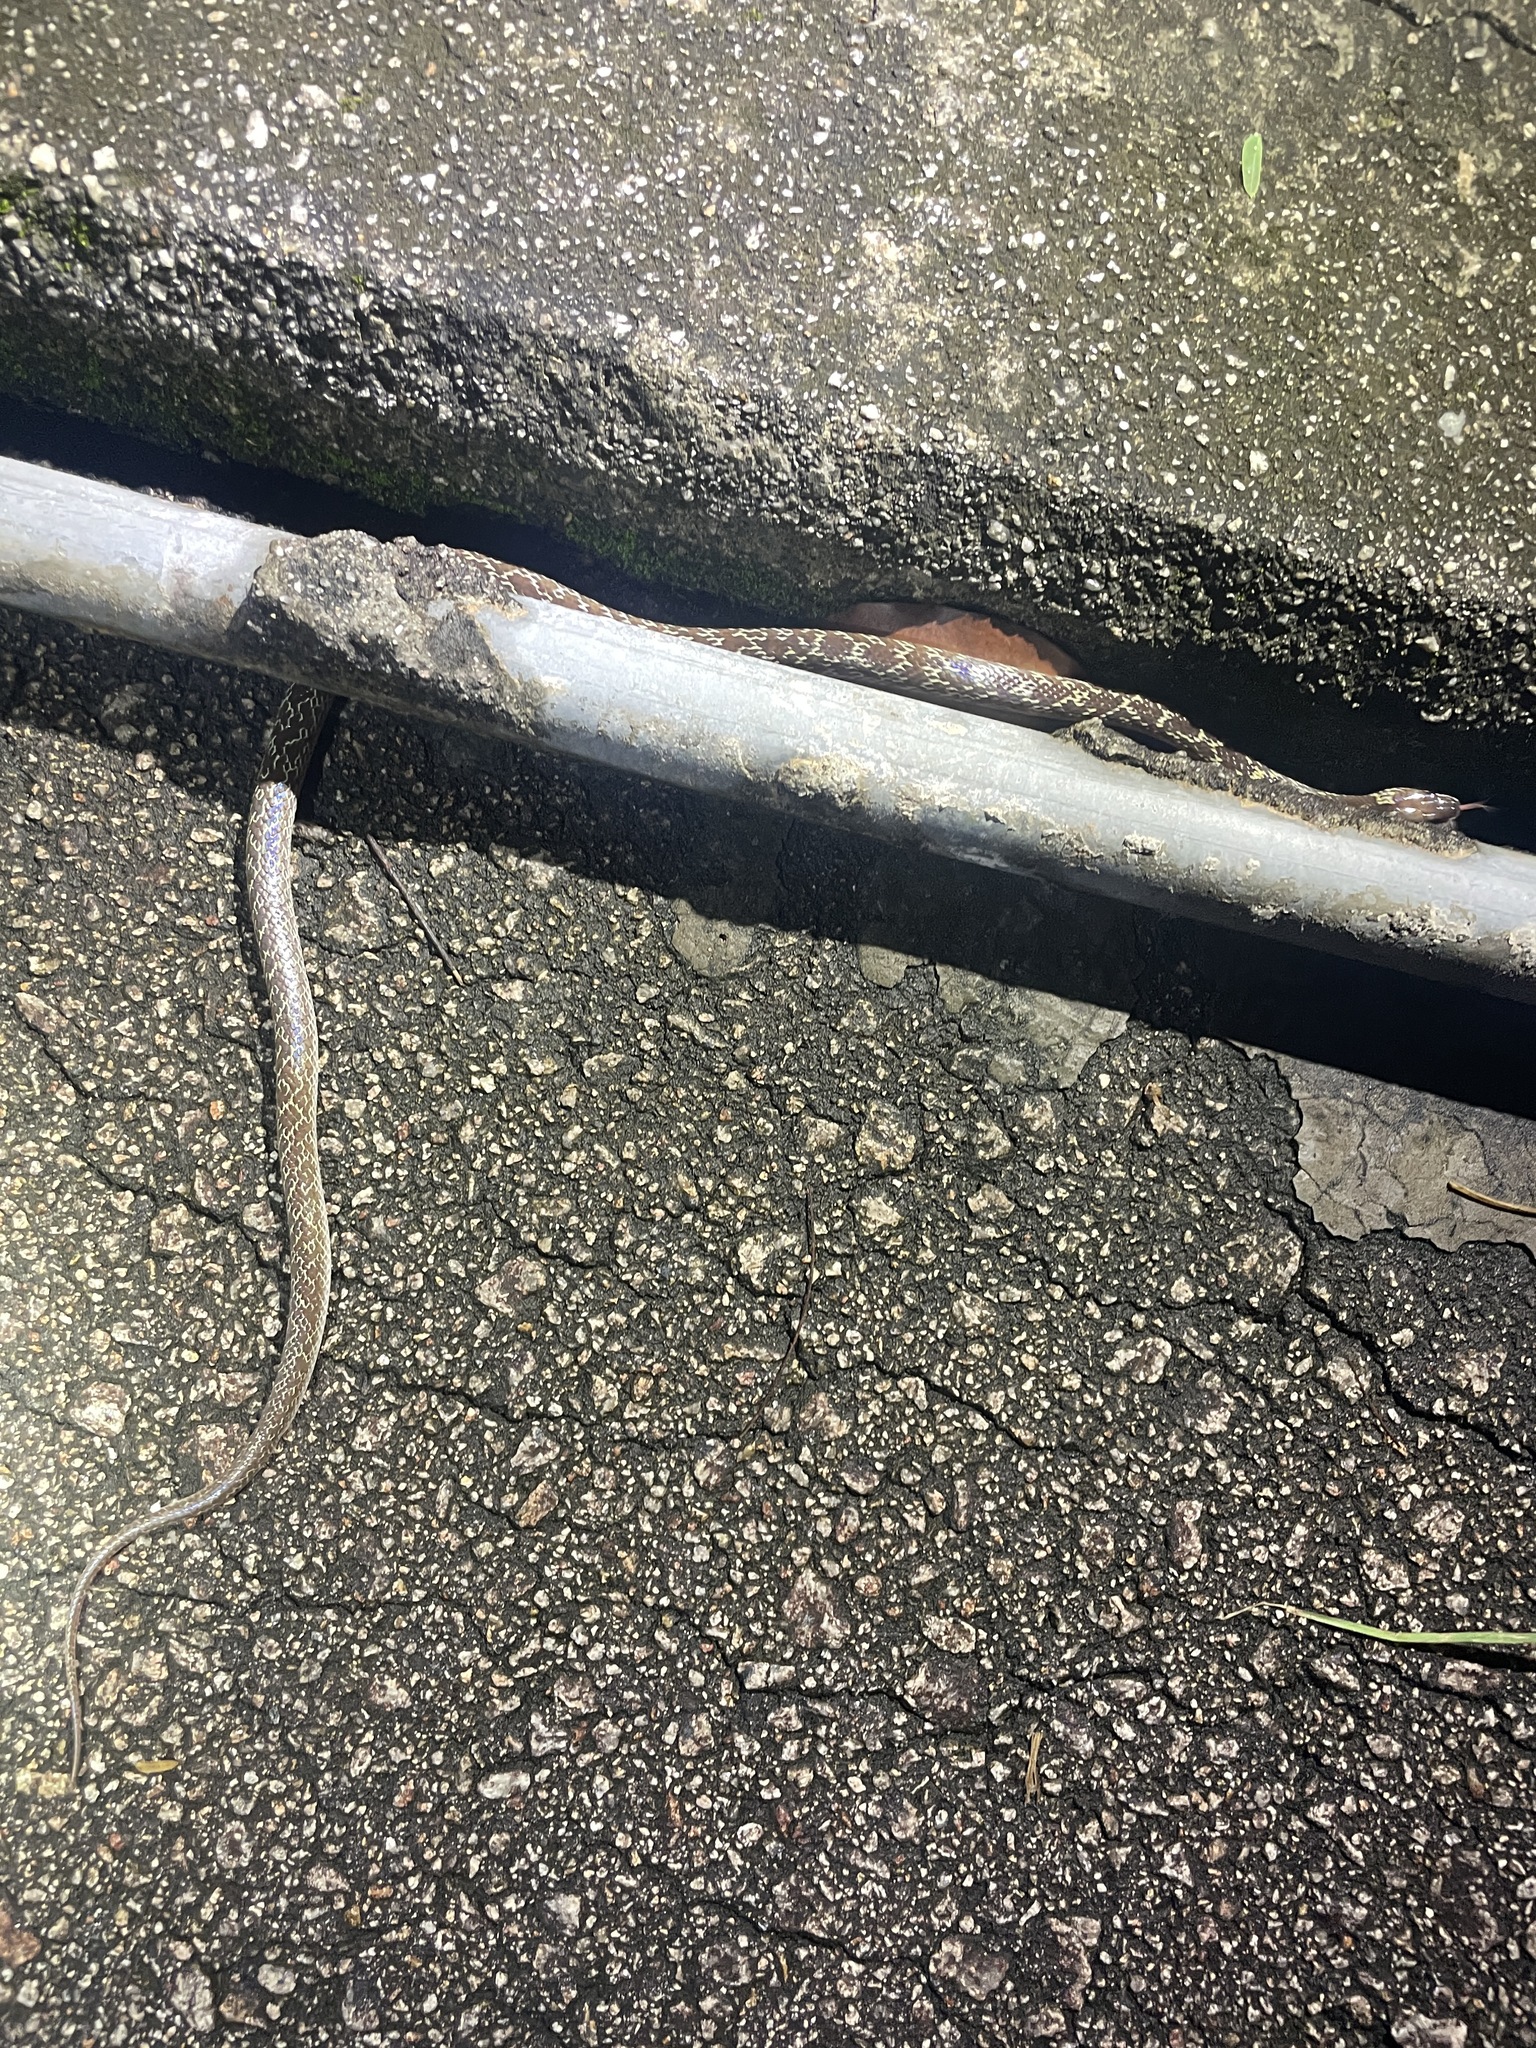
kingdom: Animalia
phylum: Chordata
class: Squamata
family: Colubridae
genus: Lycodon
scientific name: Lycodon capucinus
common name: Common wold snake/house snake
